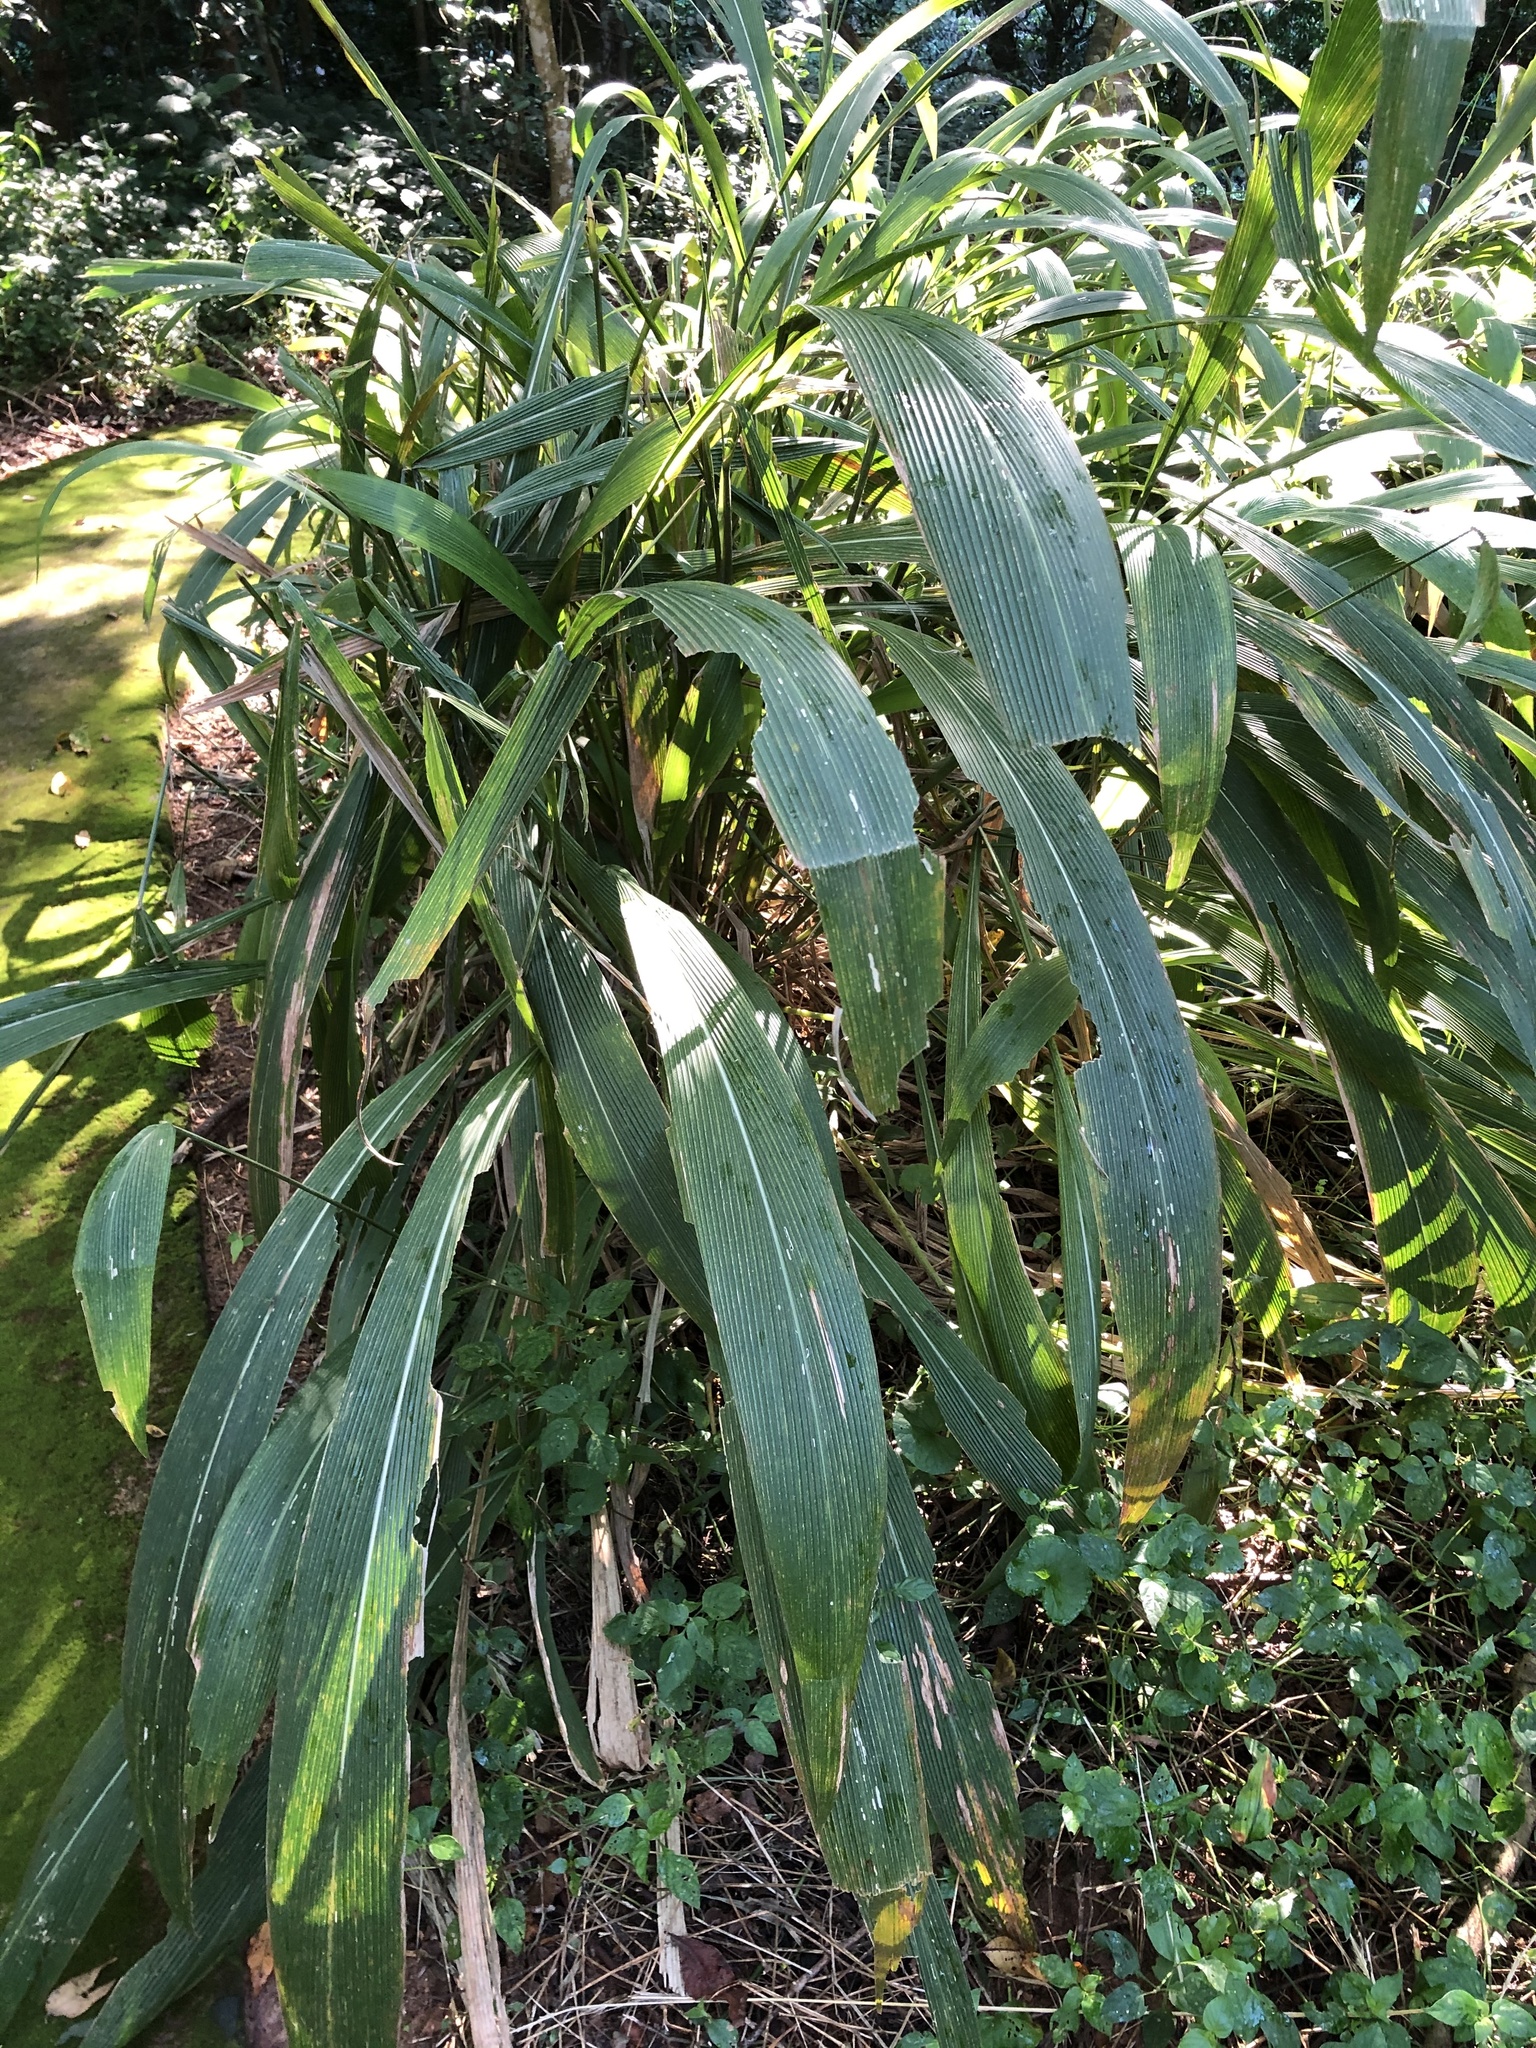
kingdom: Plantae
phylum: Tracheophyta
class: Liliopsida
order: Poales
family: Poaceae
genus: Setaria
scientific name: Setaria megaphylla
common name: Bigleaf bristlegrass
